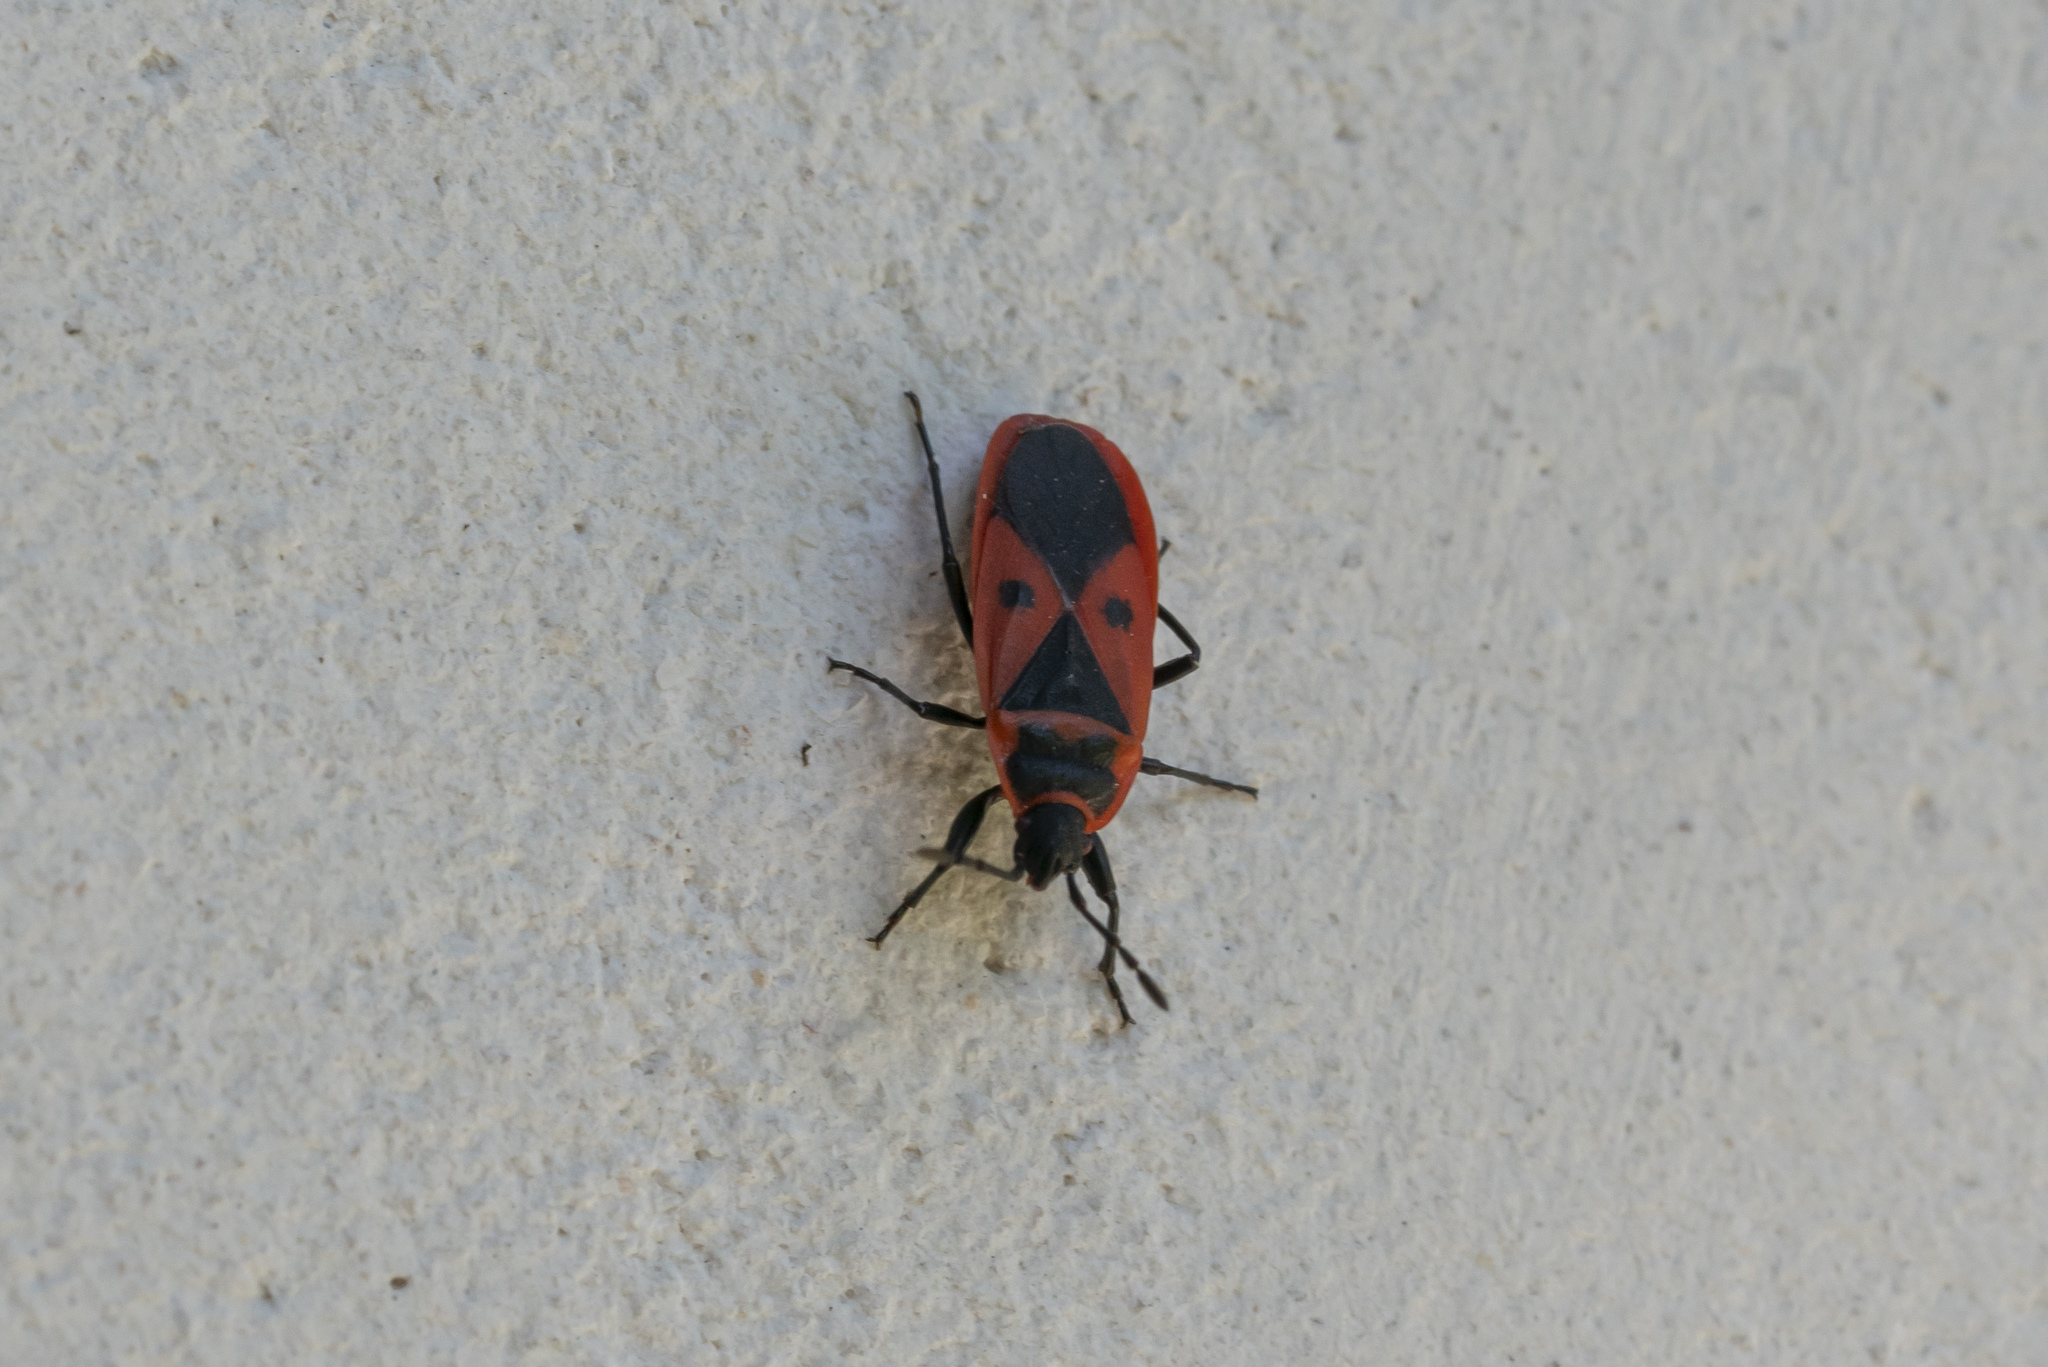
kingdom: Animalia
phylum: Arthropoda
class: Insecta
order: Hemiptera
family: Pyrrhocoridae
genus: Scantius
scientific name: Scantius aegyptius
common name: Red bug
